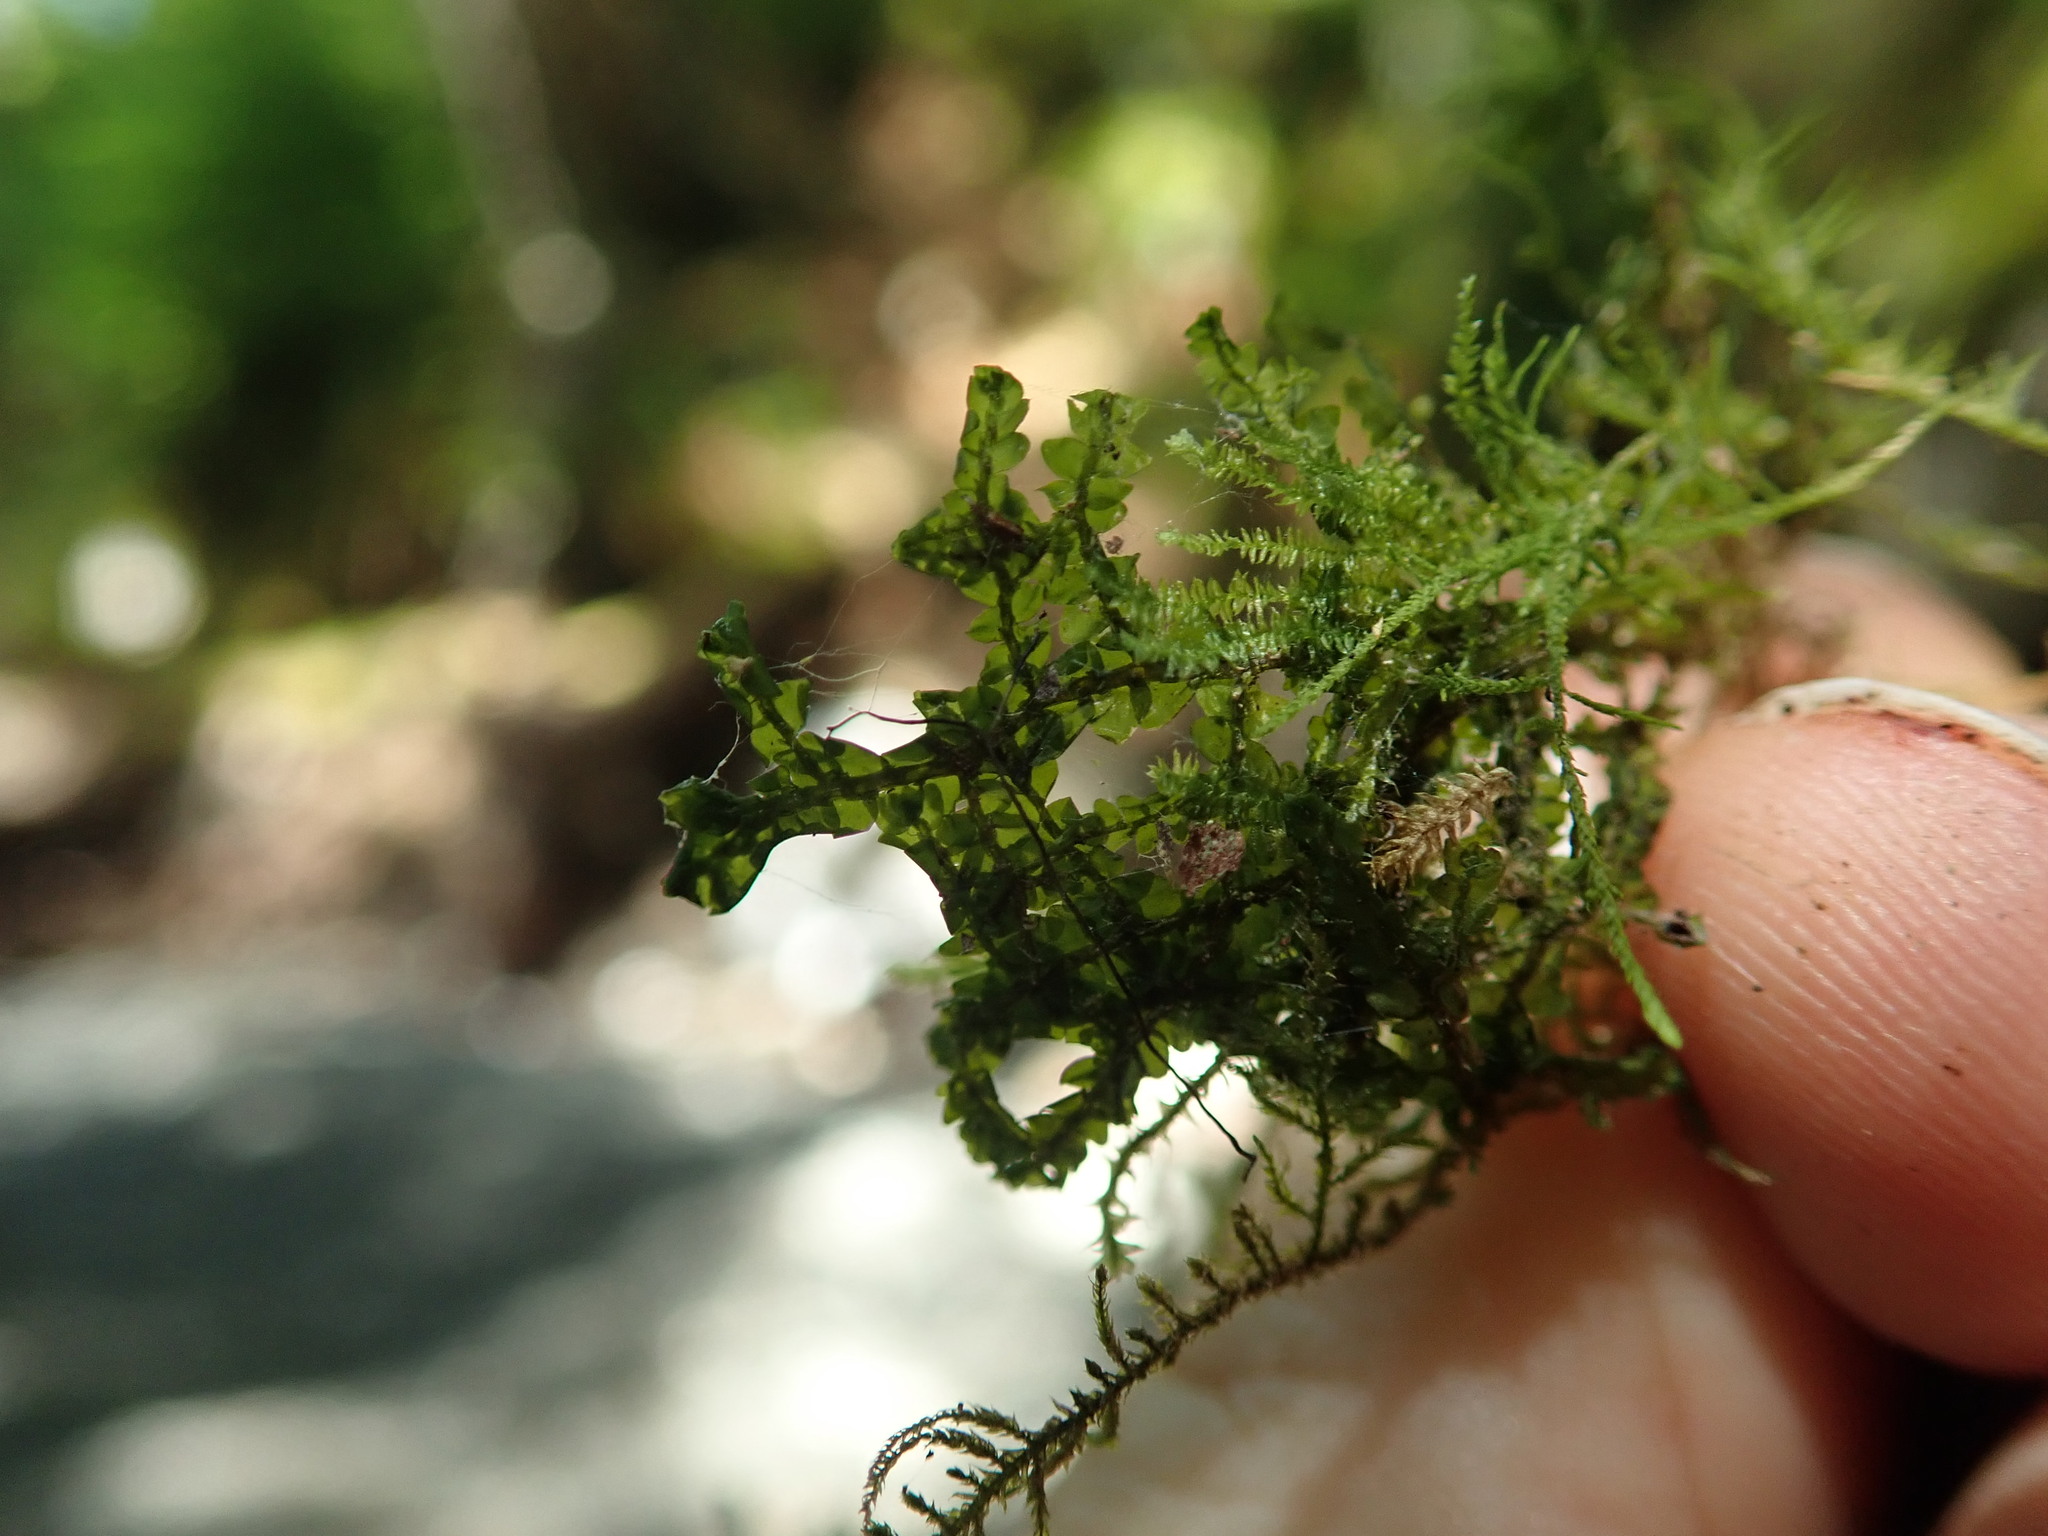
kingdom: Plantae
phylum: Marchantiophyta
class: Jungermanniopsida
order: Porellales
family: Porellaceae
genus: Porella
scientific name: Porella cordaeana
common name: Cliff scalewort
